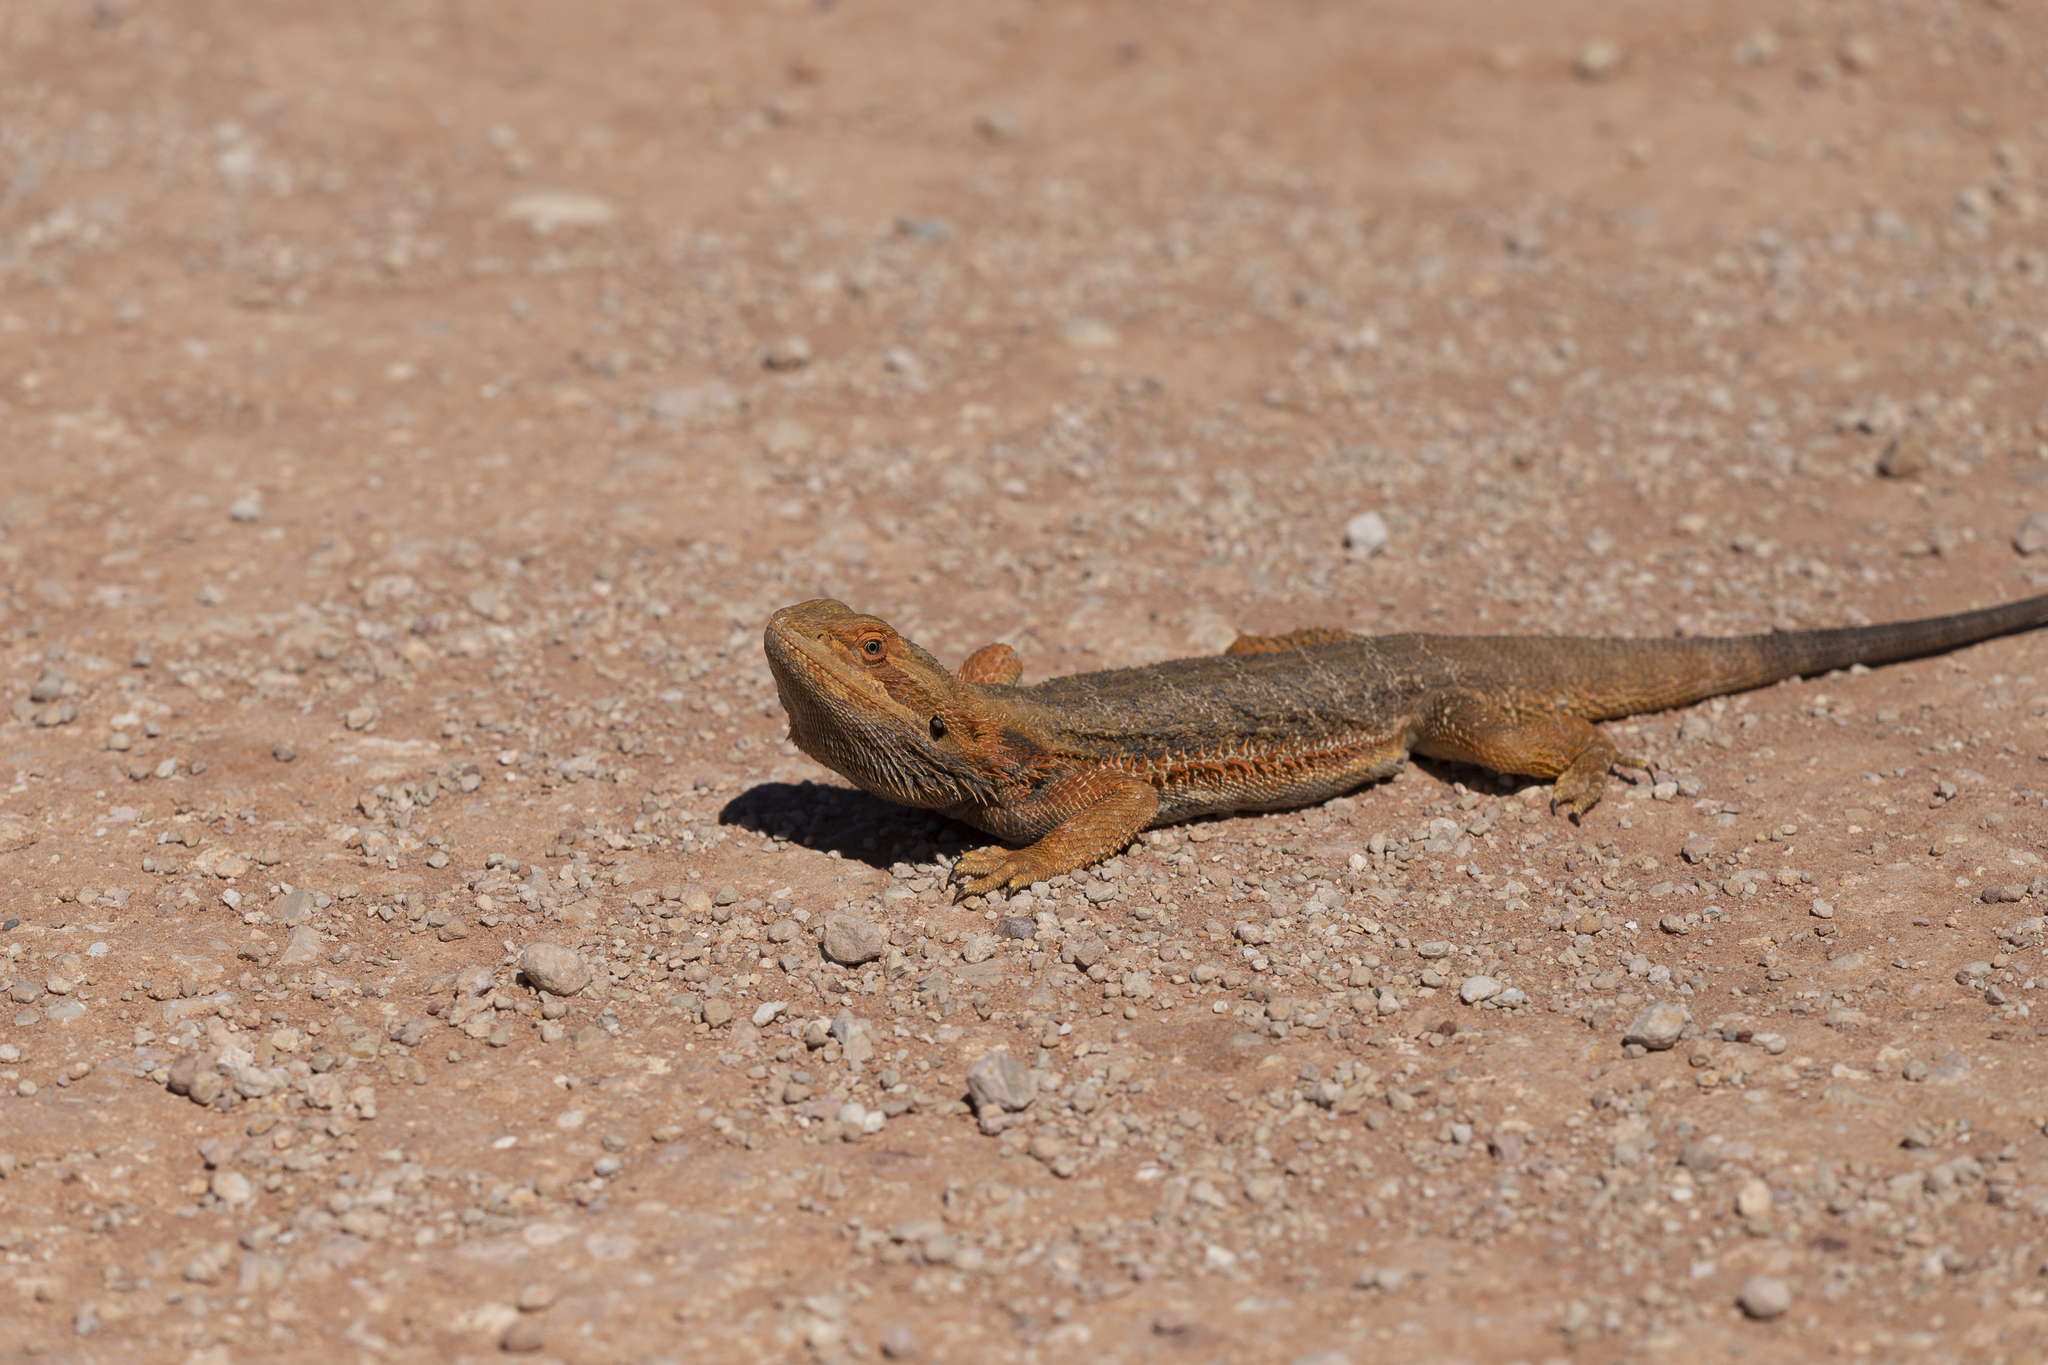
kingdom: Animalia
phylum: Chordata
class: Squamata
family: Agamidae
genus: Pogona
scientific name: Pogona vitticeps
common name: Central bearded dragon
